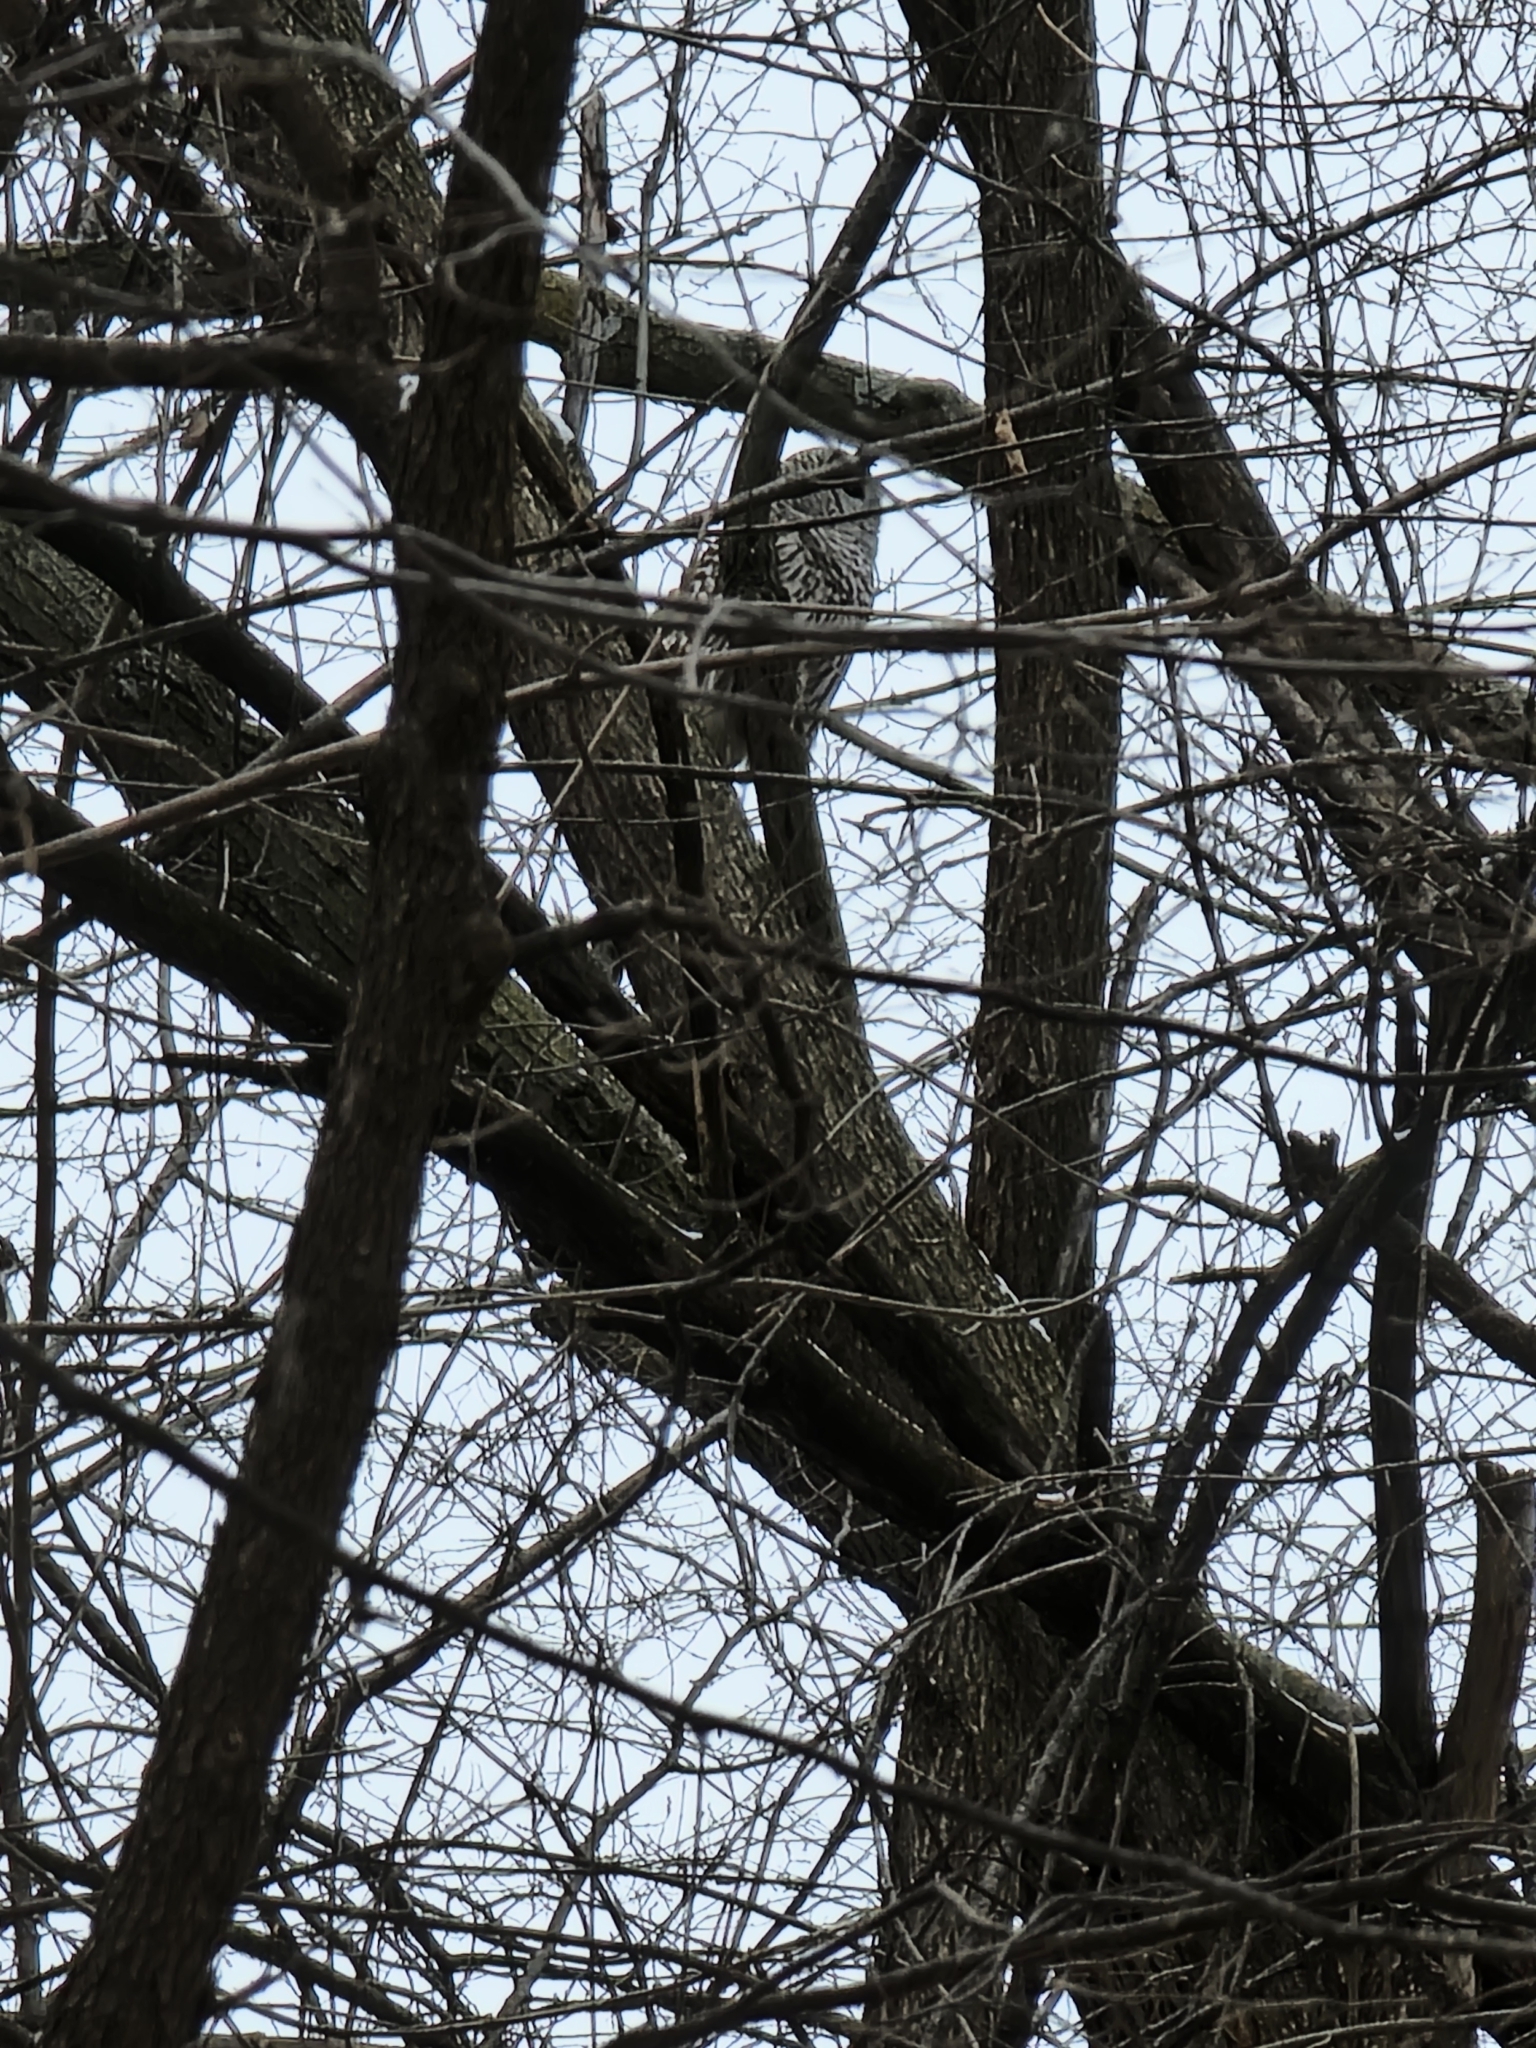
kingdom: Animalia
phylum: Chordata
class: Aves
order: Strigiformes
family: Strigidae
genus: Strix
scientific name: Strix varia
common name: Barred owl
